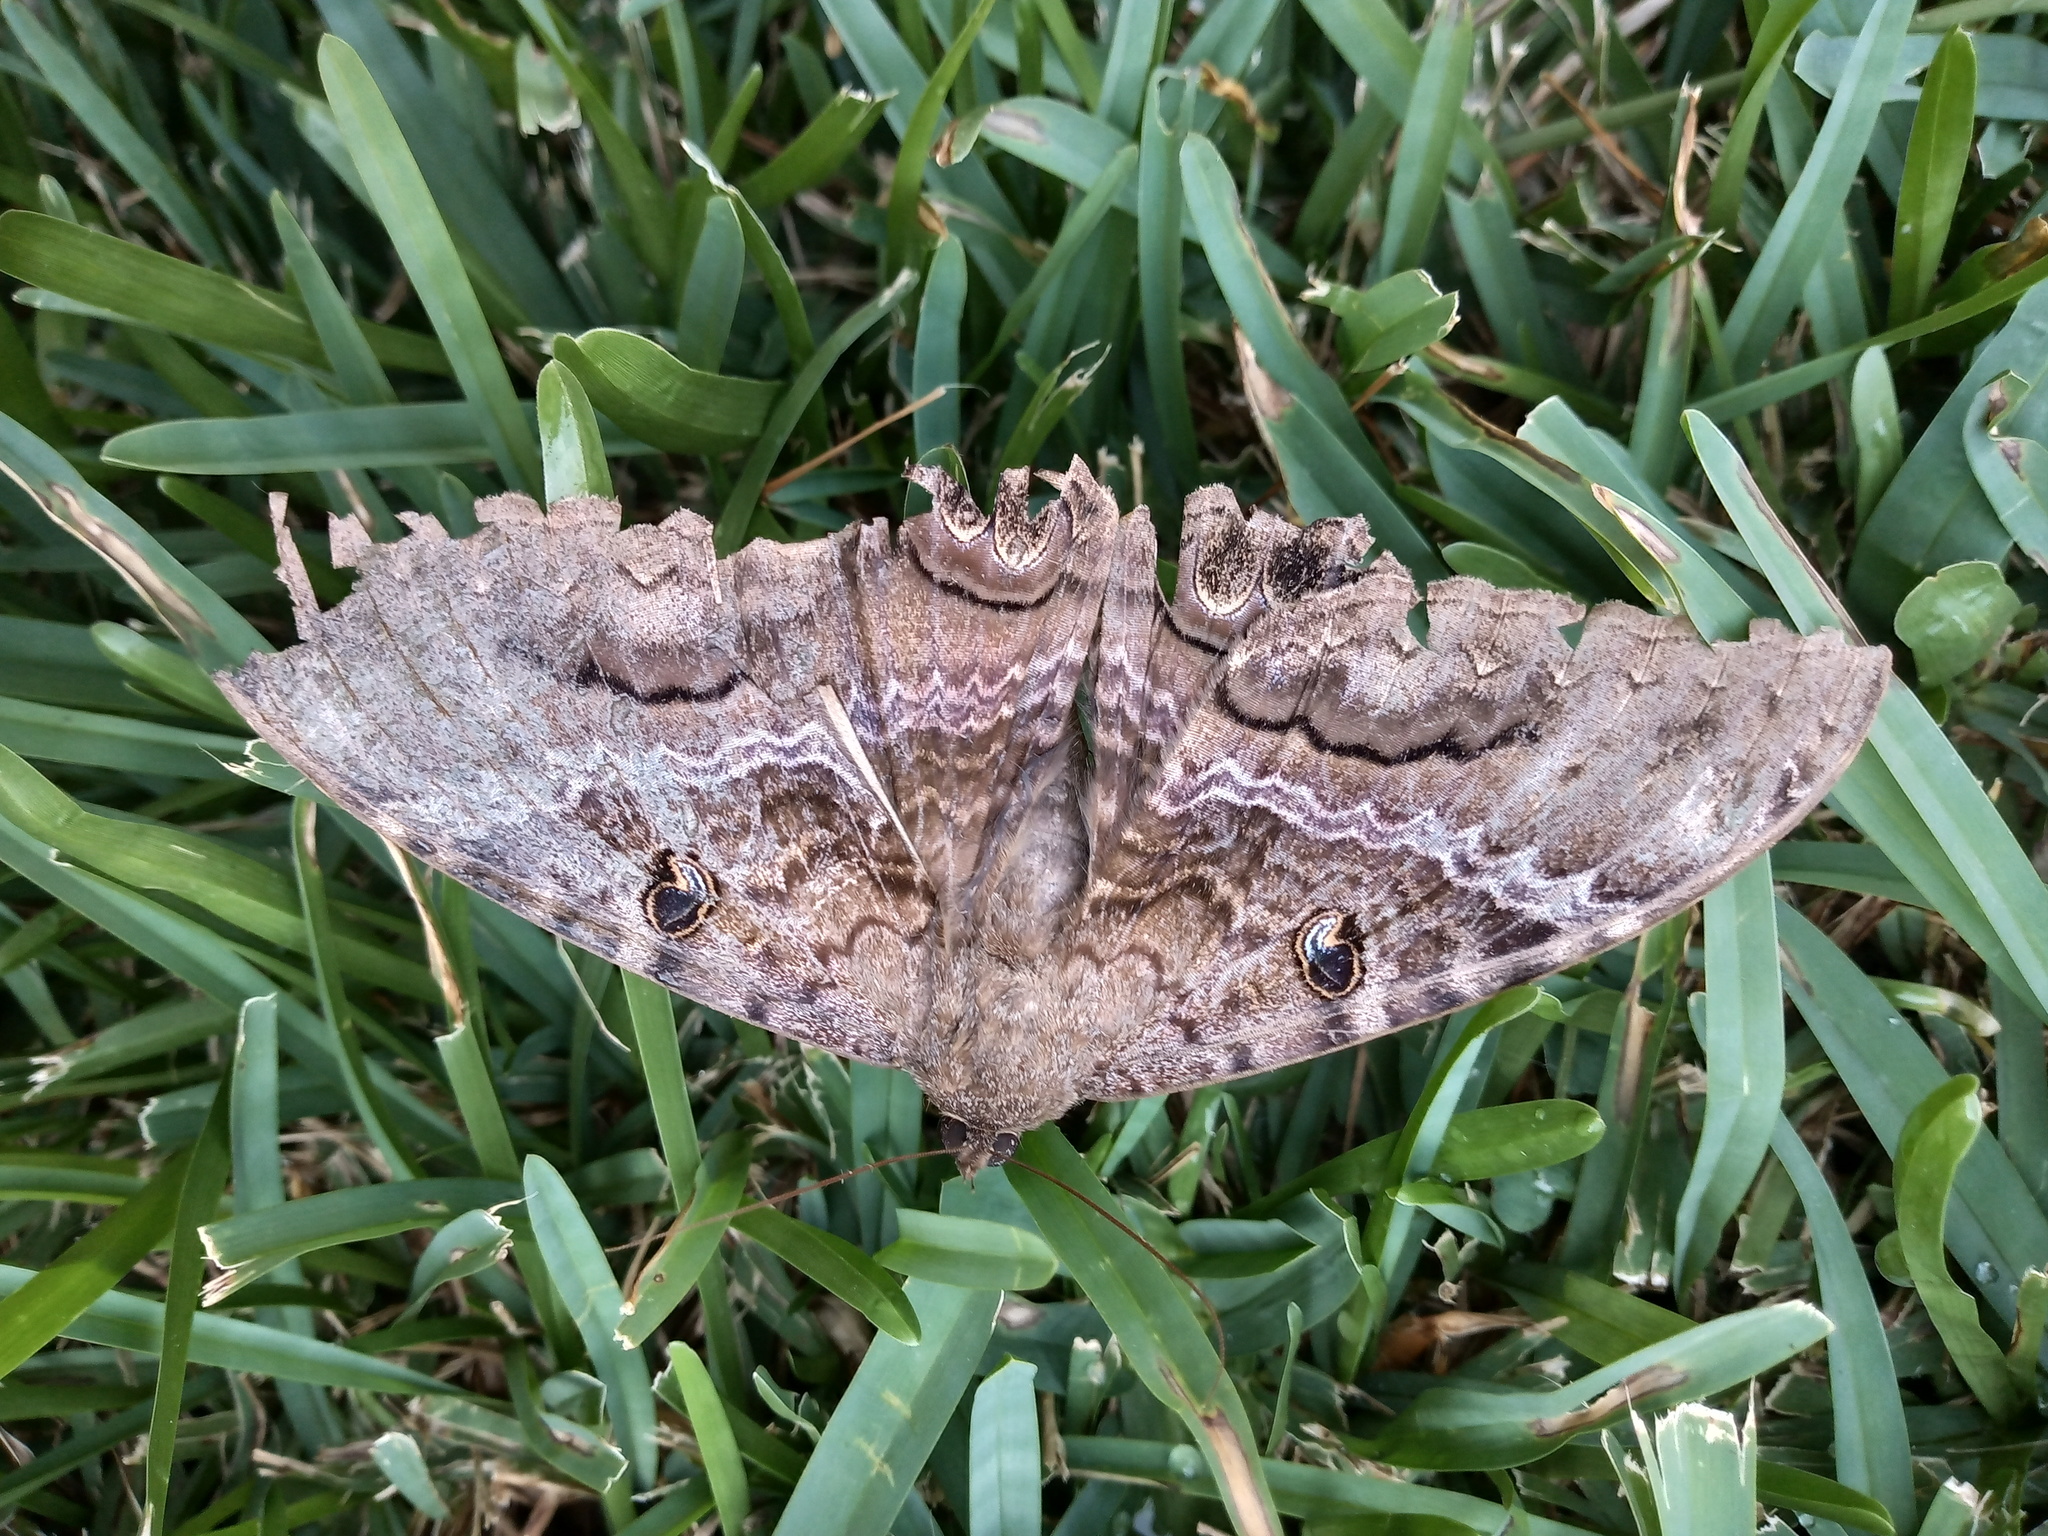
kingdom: Animalia
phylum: Arthropoda
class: Insecta
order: Lepidoptera
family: Erebidae
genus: Ascalapha
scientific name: Ascalapha odorata
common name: Black witch
